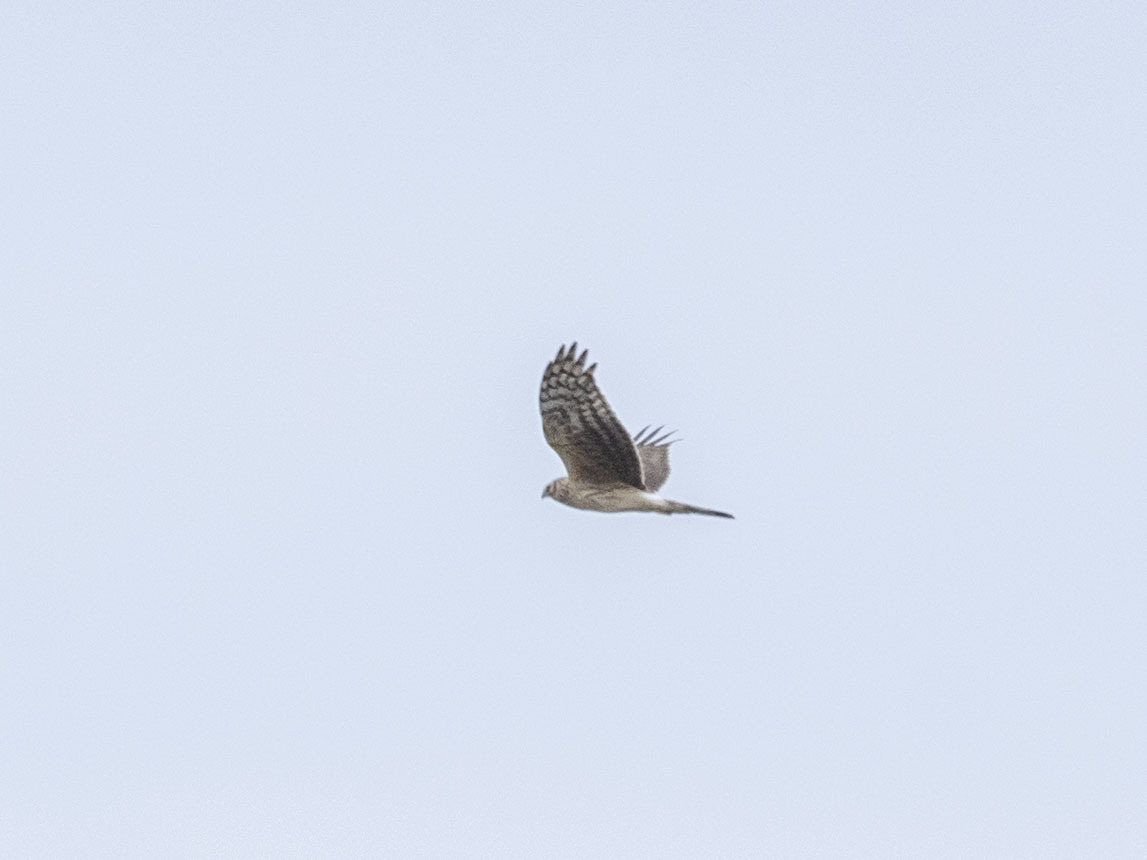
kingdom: Animalia
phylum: Chordata
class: Aves
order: Accipitriformes
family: Accipitridae
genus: Circus
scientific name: Circus cyaneus
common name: Hen harrier
